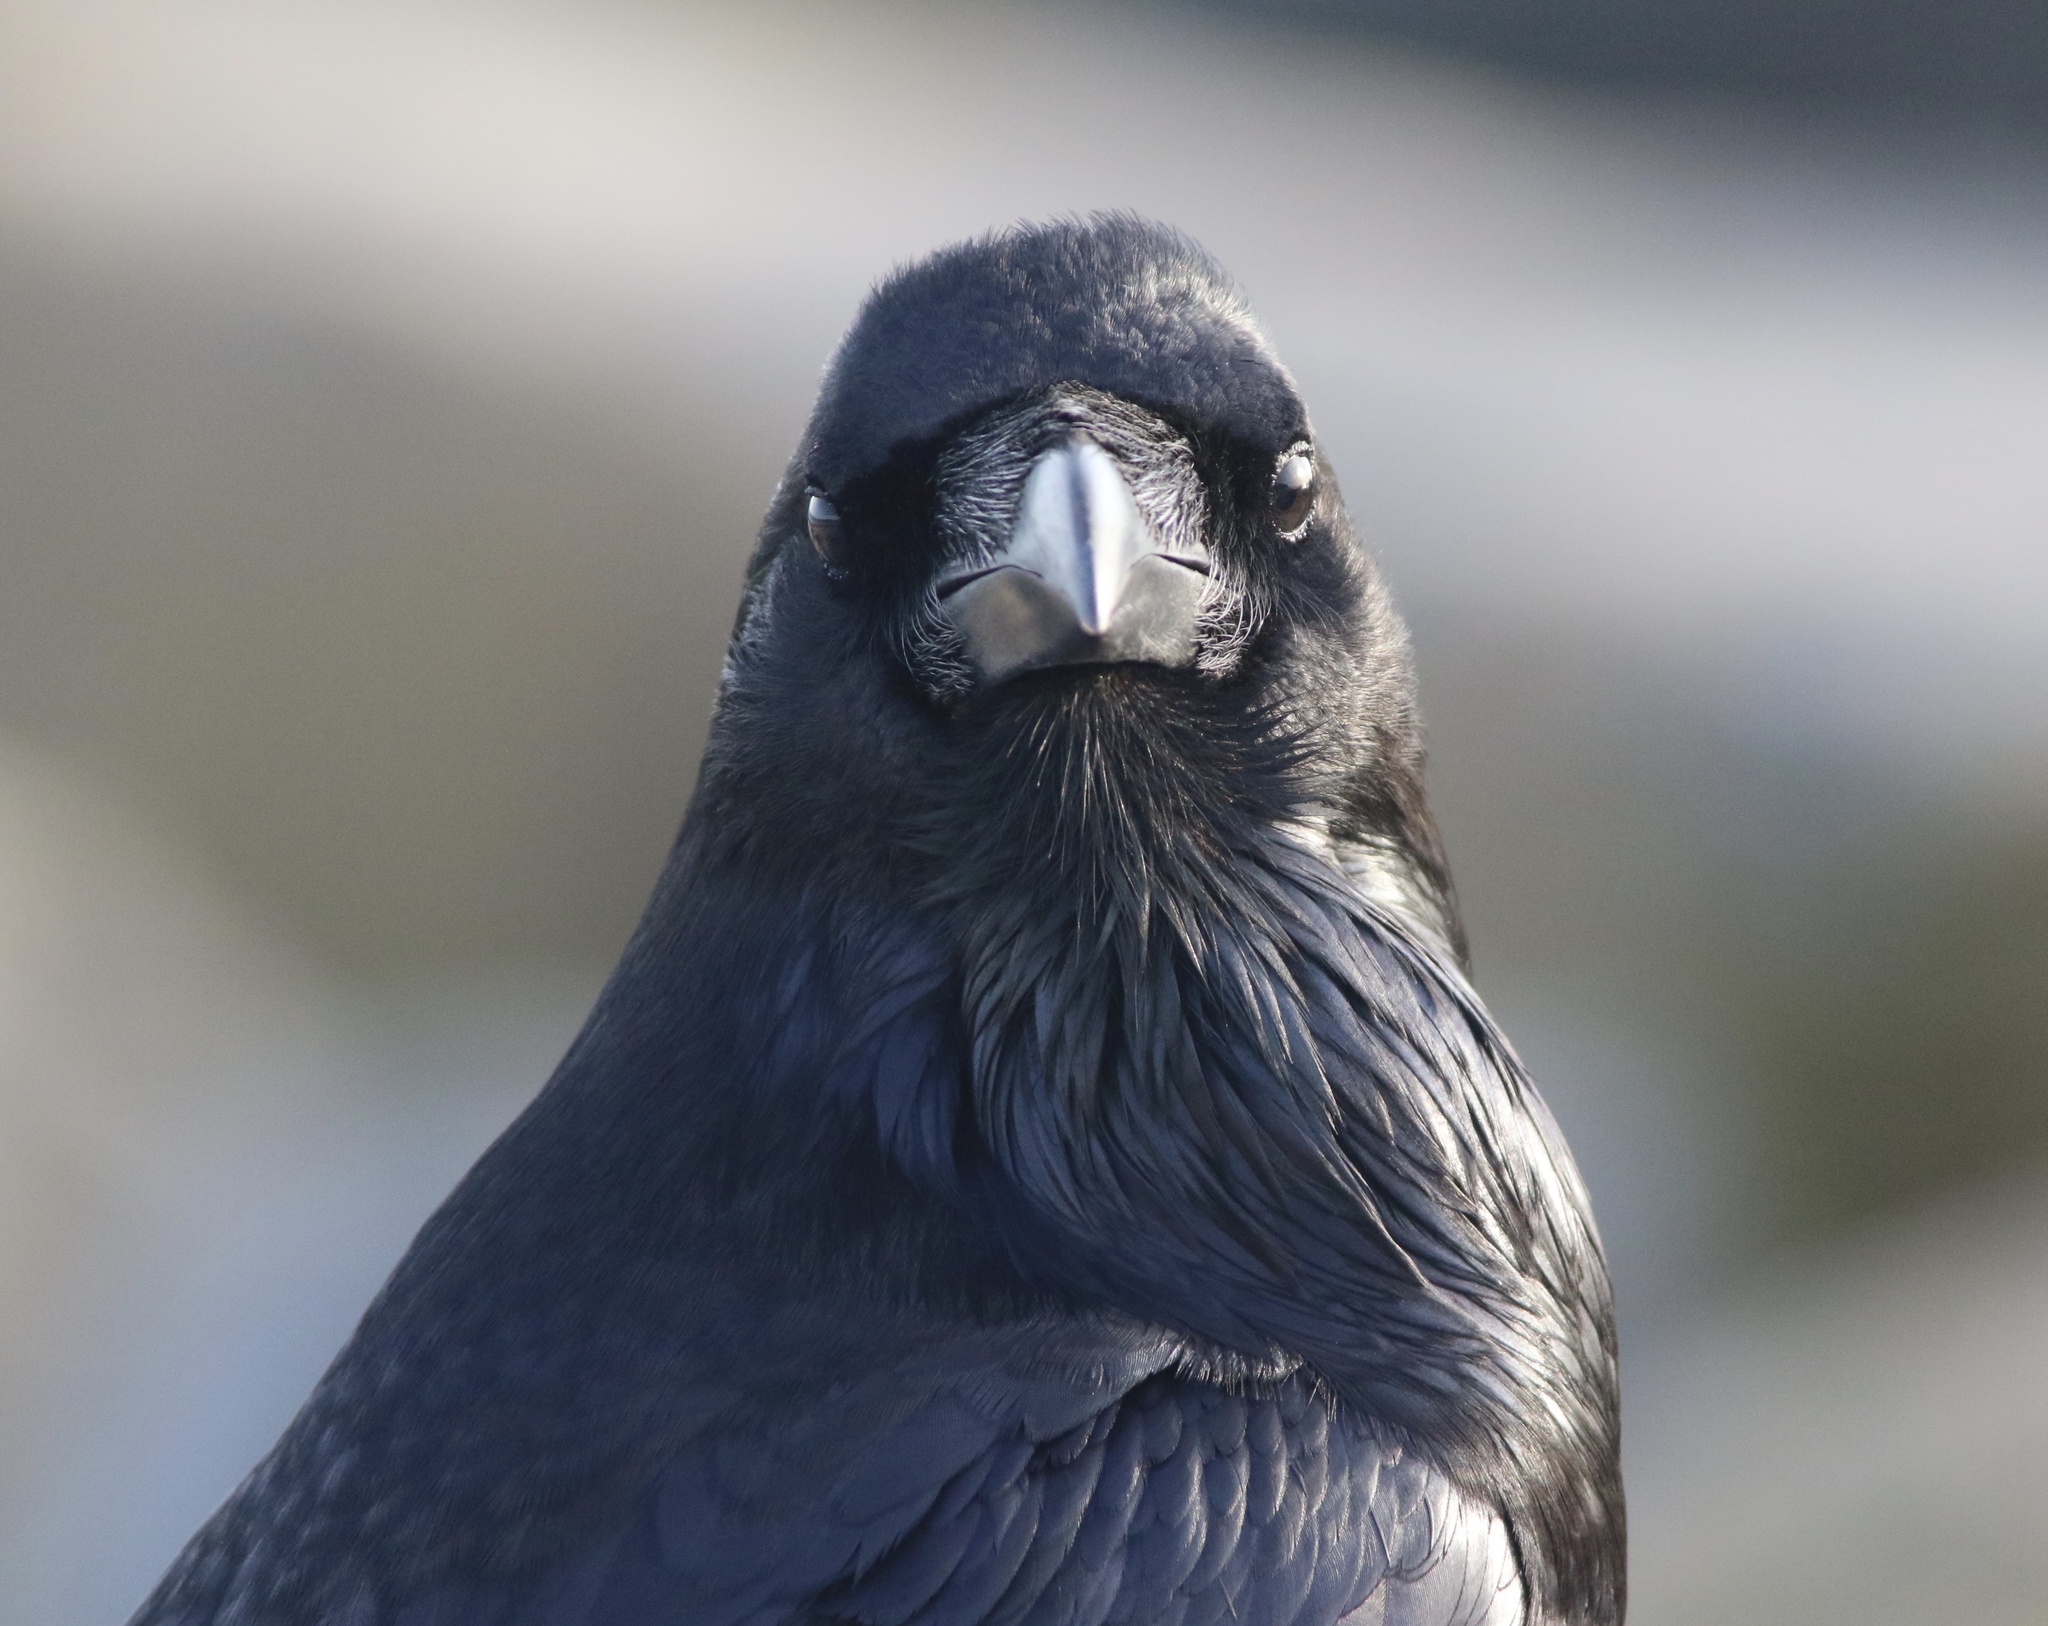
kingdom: Animalia
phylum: Chordata
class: Aves
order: Passeriformes
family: Corvidae
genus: Corvus
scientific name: Corvus corax
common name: Common raven
